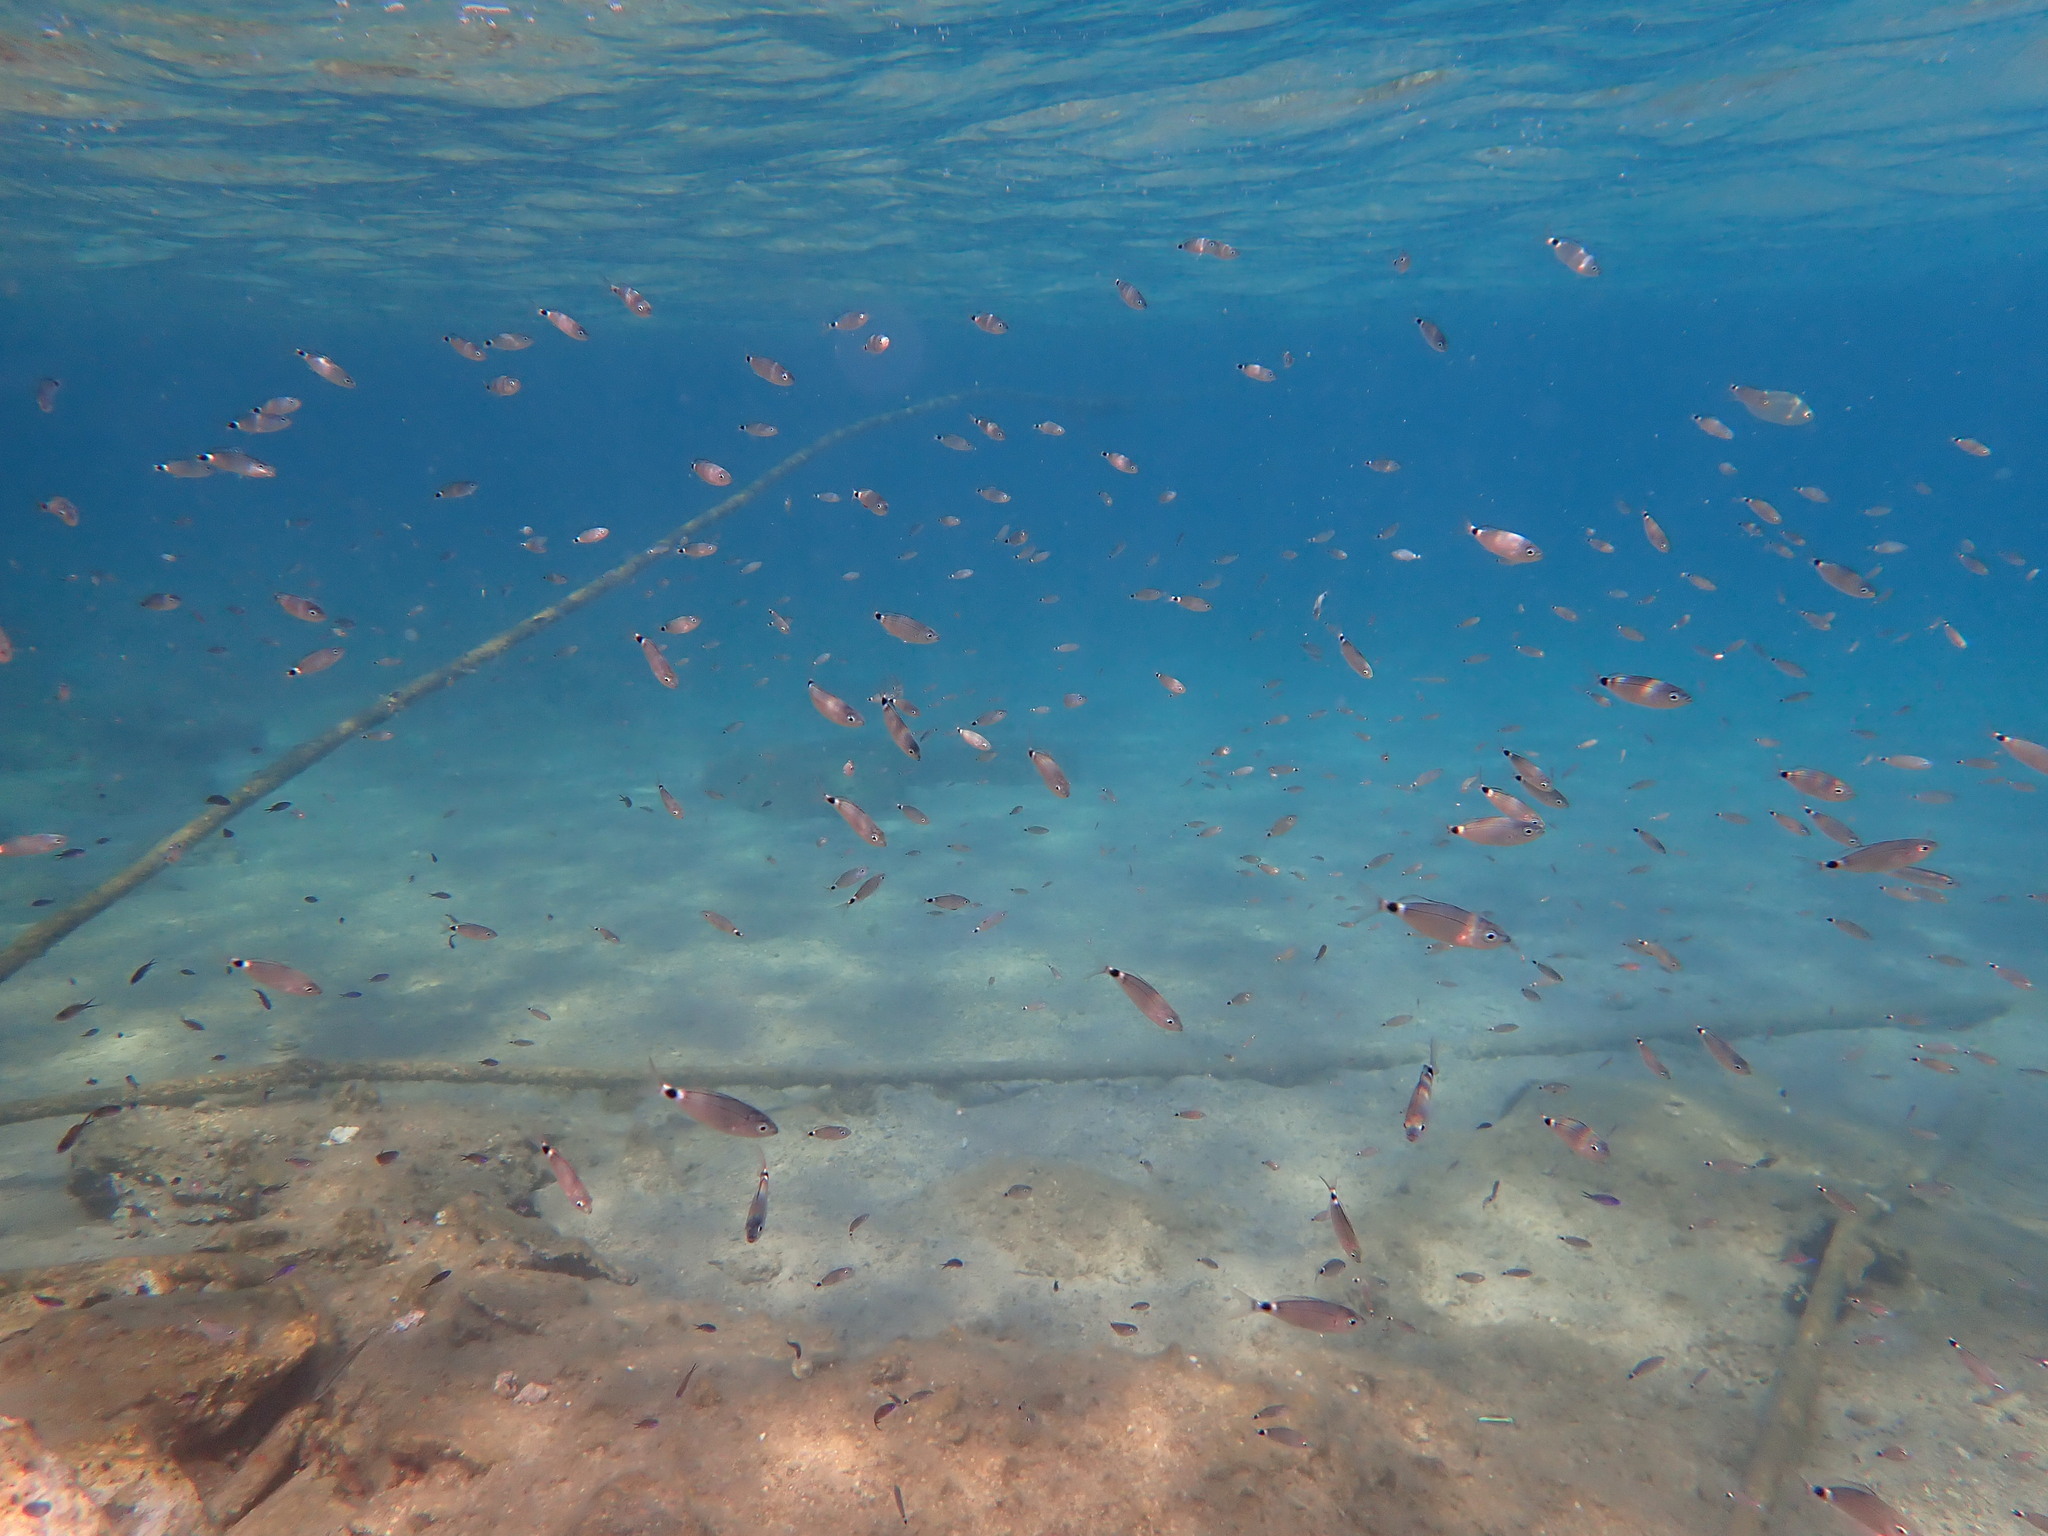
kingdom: Animalia
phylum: Chordata
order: Perciformes
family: Sparidae
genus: Oblada
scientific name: Oblada melanura
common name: Saddled seabream
